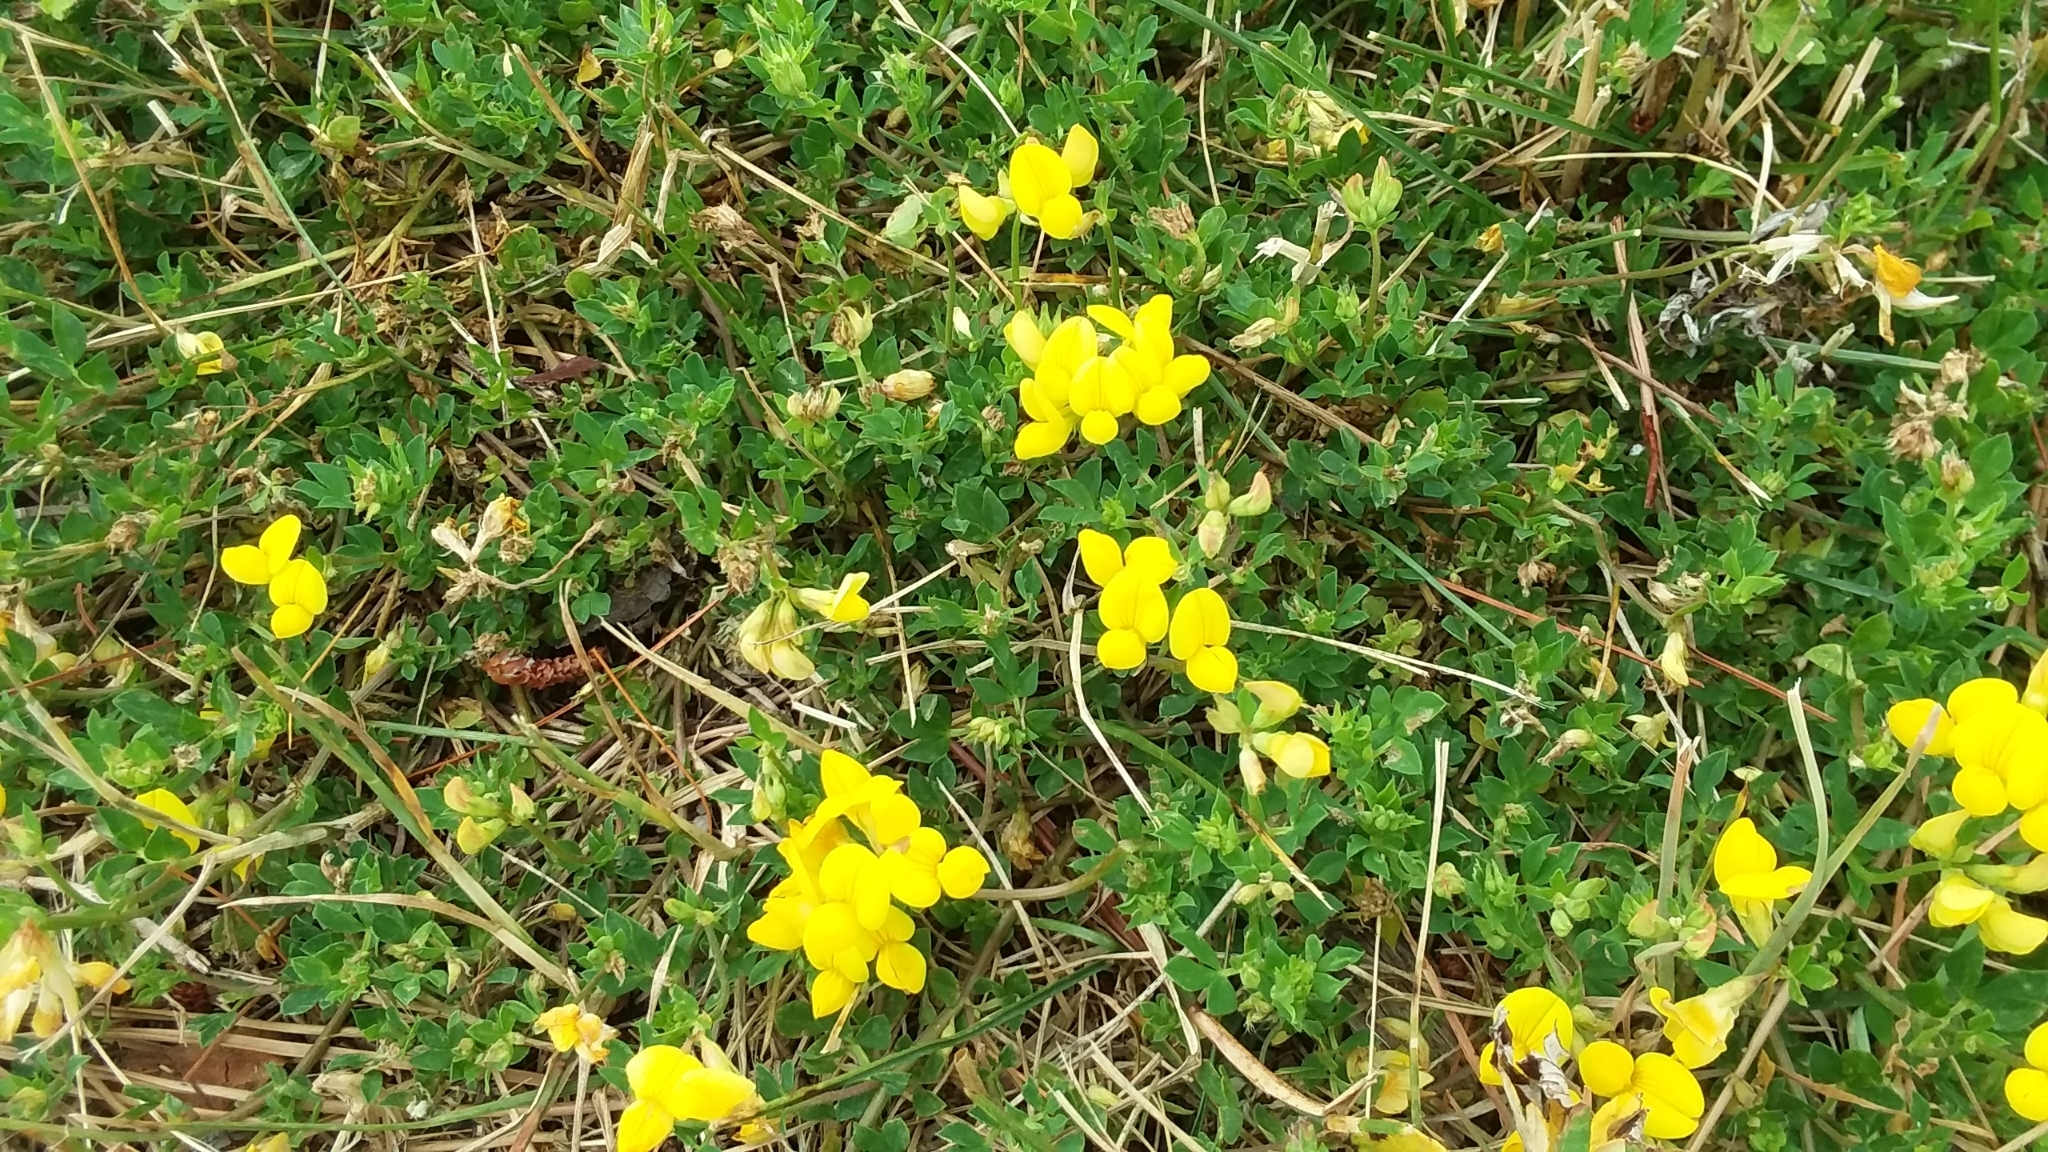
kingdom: Plantae
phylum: Tracheophyta
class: Magnoliopsida
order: Fabales
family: Fabaceae
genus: Lotus
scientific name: Lotus corniculatus
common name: Common bird's-foot-trefoil
